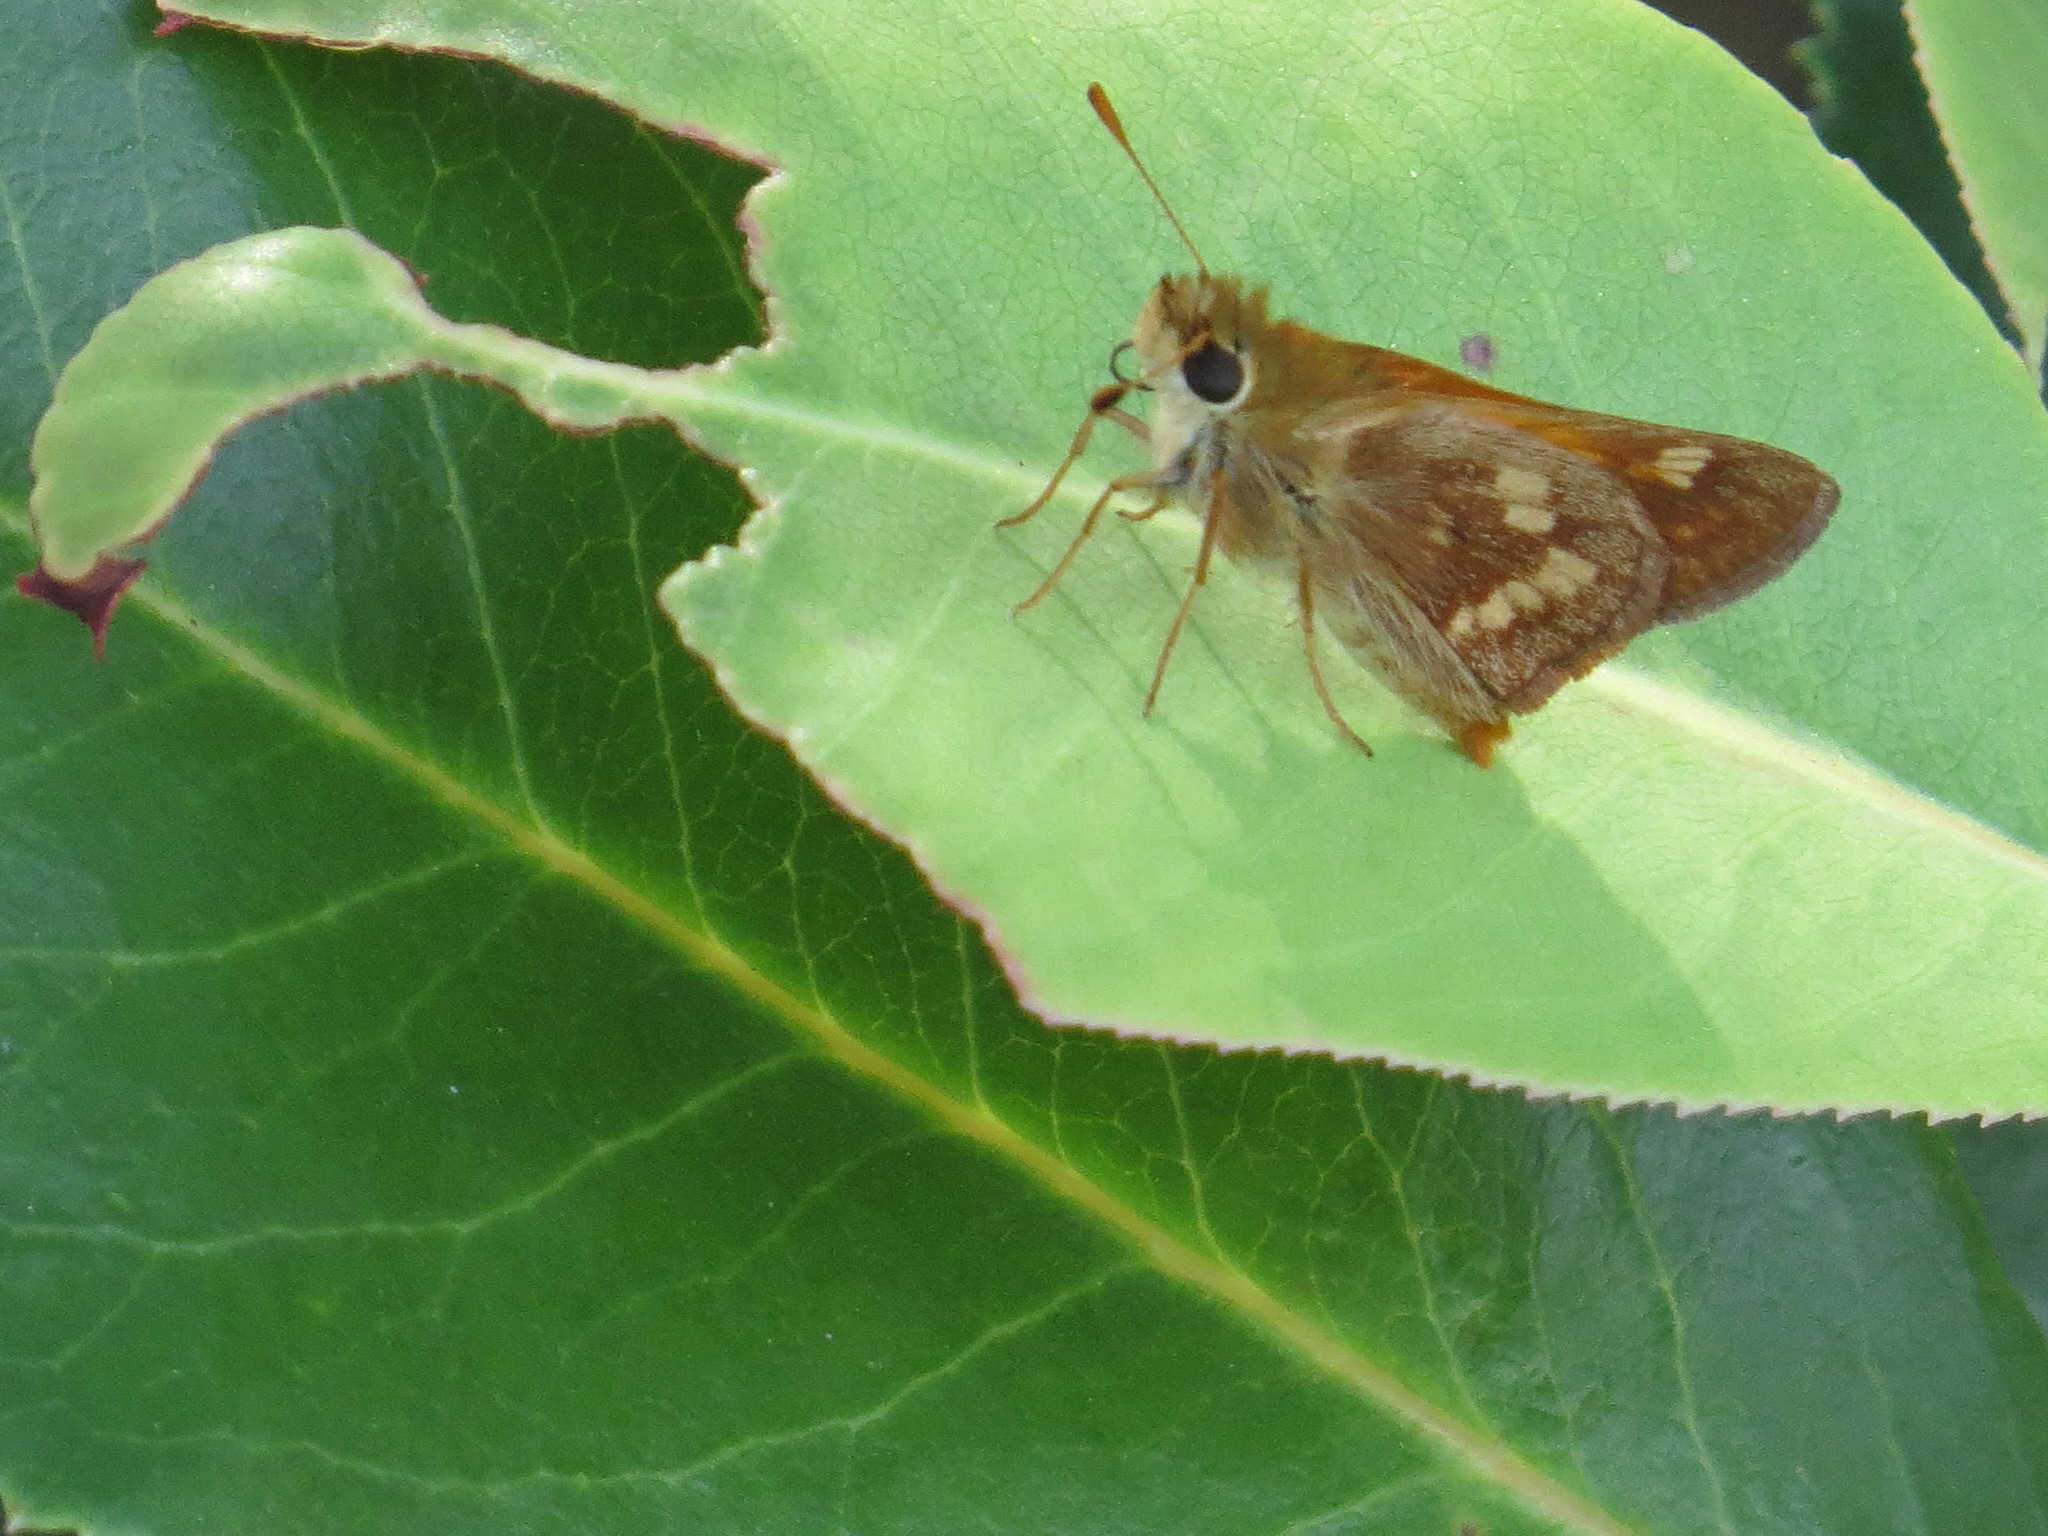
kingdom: Animalia
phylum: Arthropoda
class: Insecta
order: Lepidoptera
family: Hesperiidae
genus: Ochlodes
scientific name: Ochlodes sylvanoides
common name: Woodland skipper
